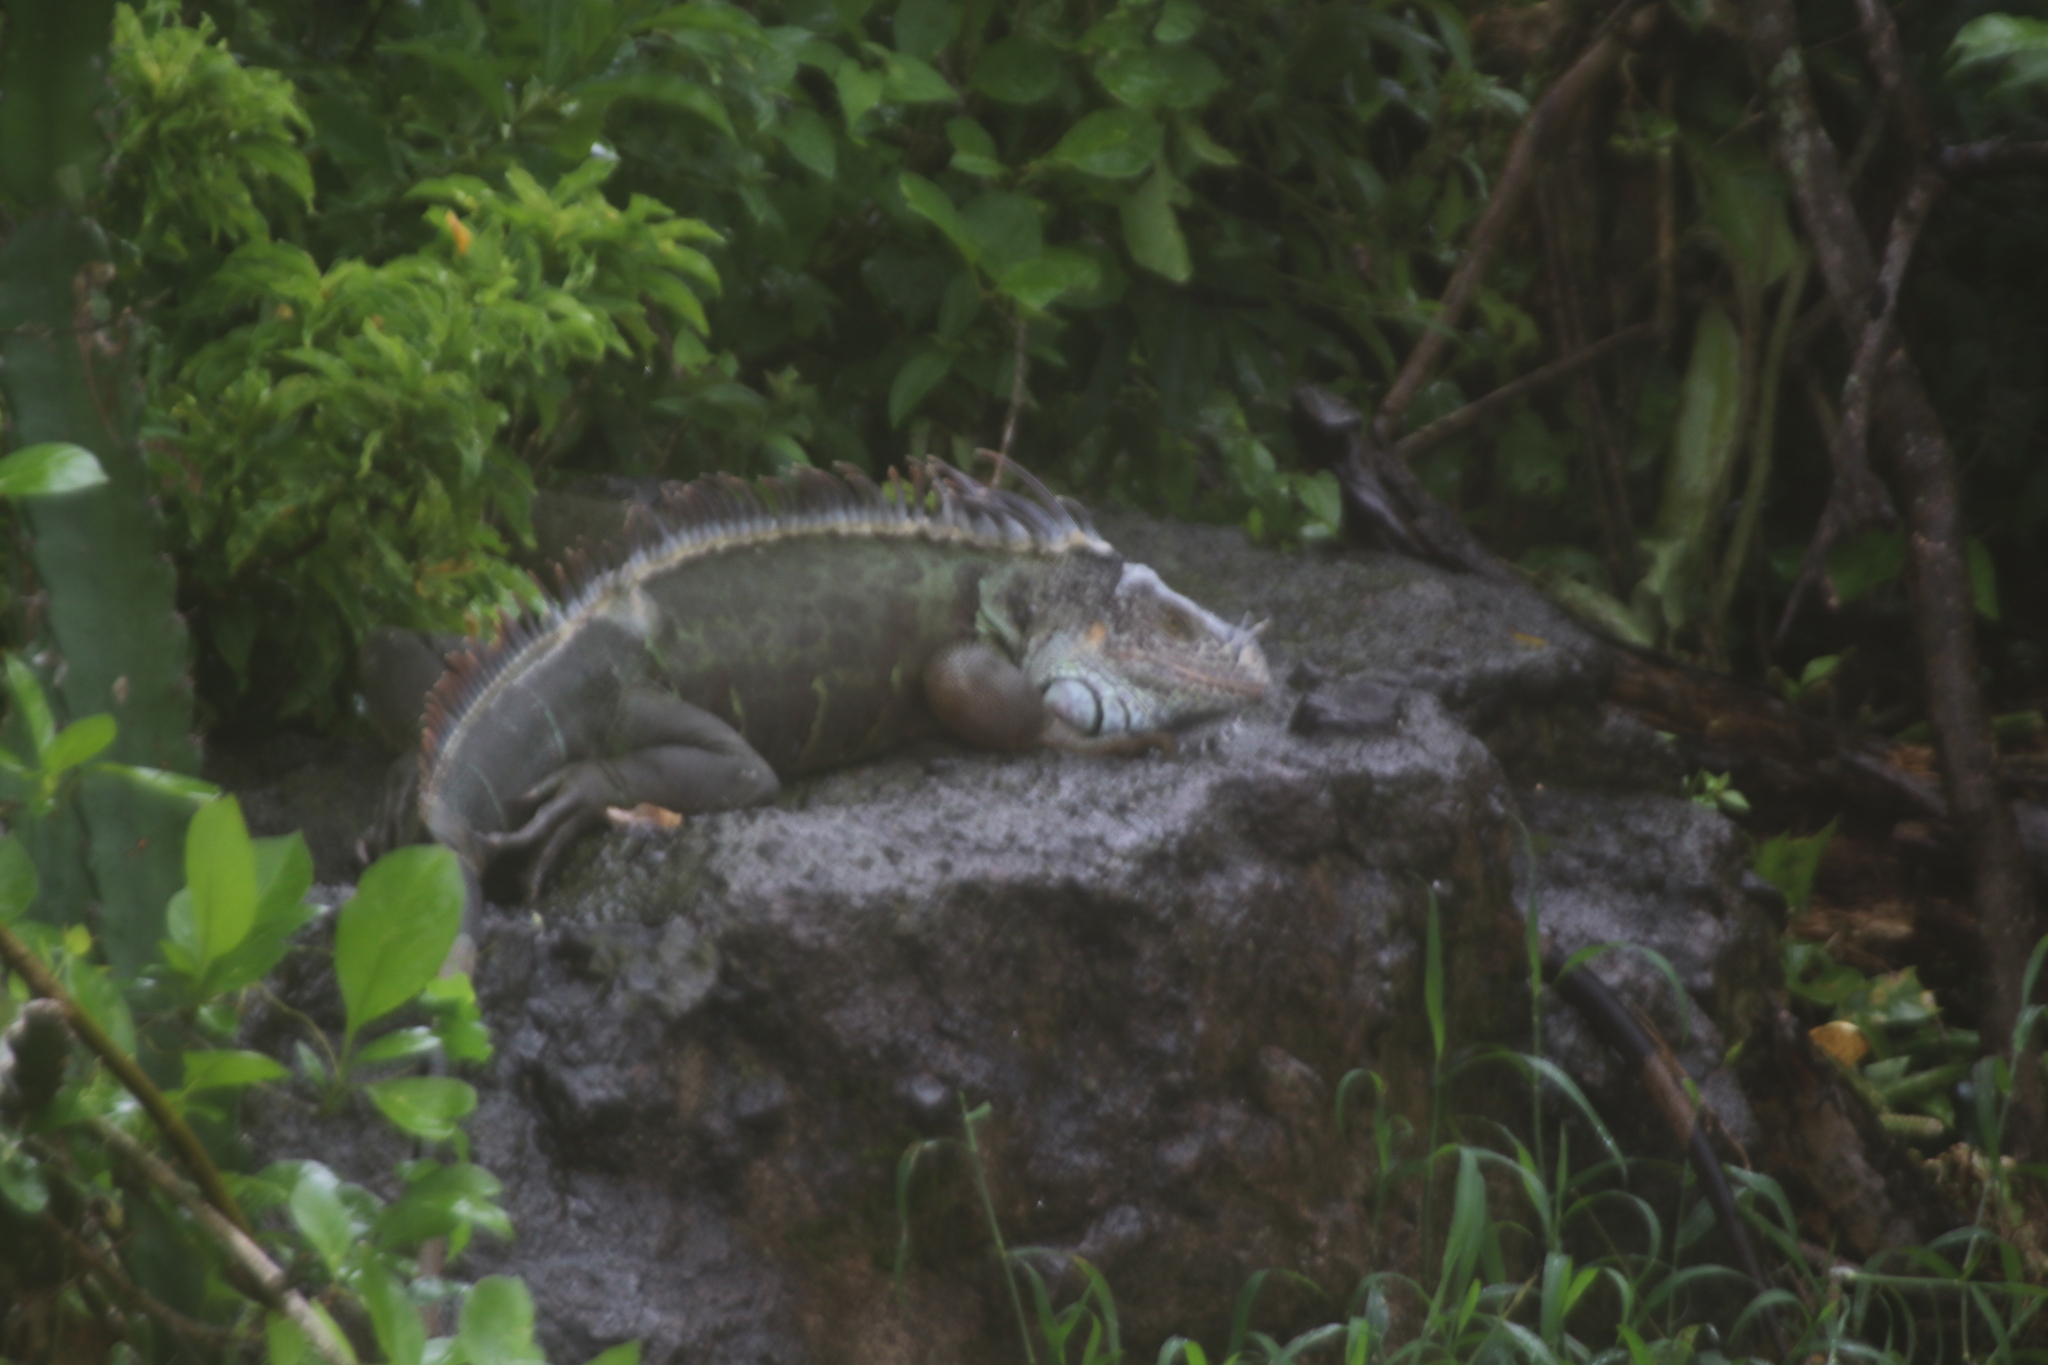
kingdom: Animalia
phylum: Chordata
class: Squamata
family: Iguanidae
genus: Iguana
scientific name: Iguana iguana
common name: Green iguana
